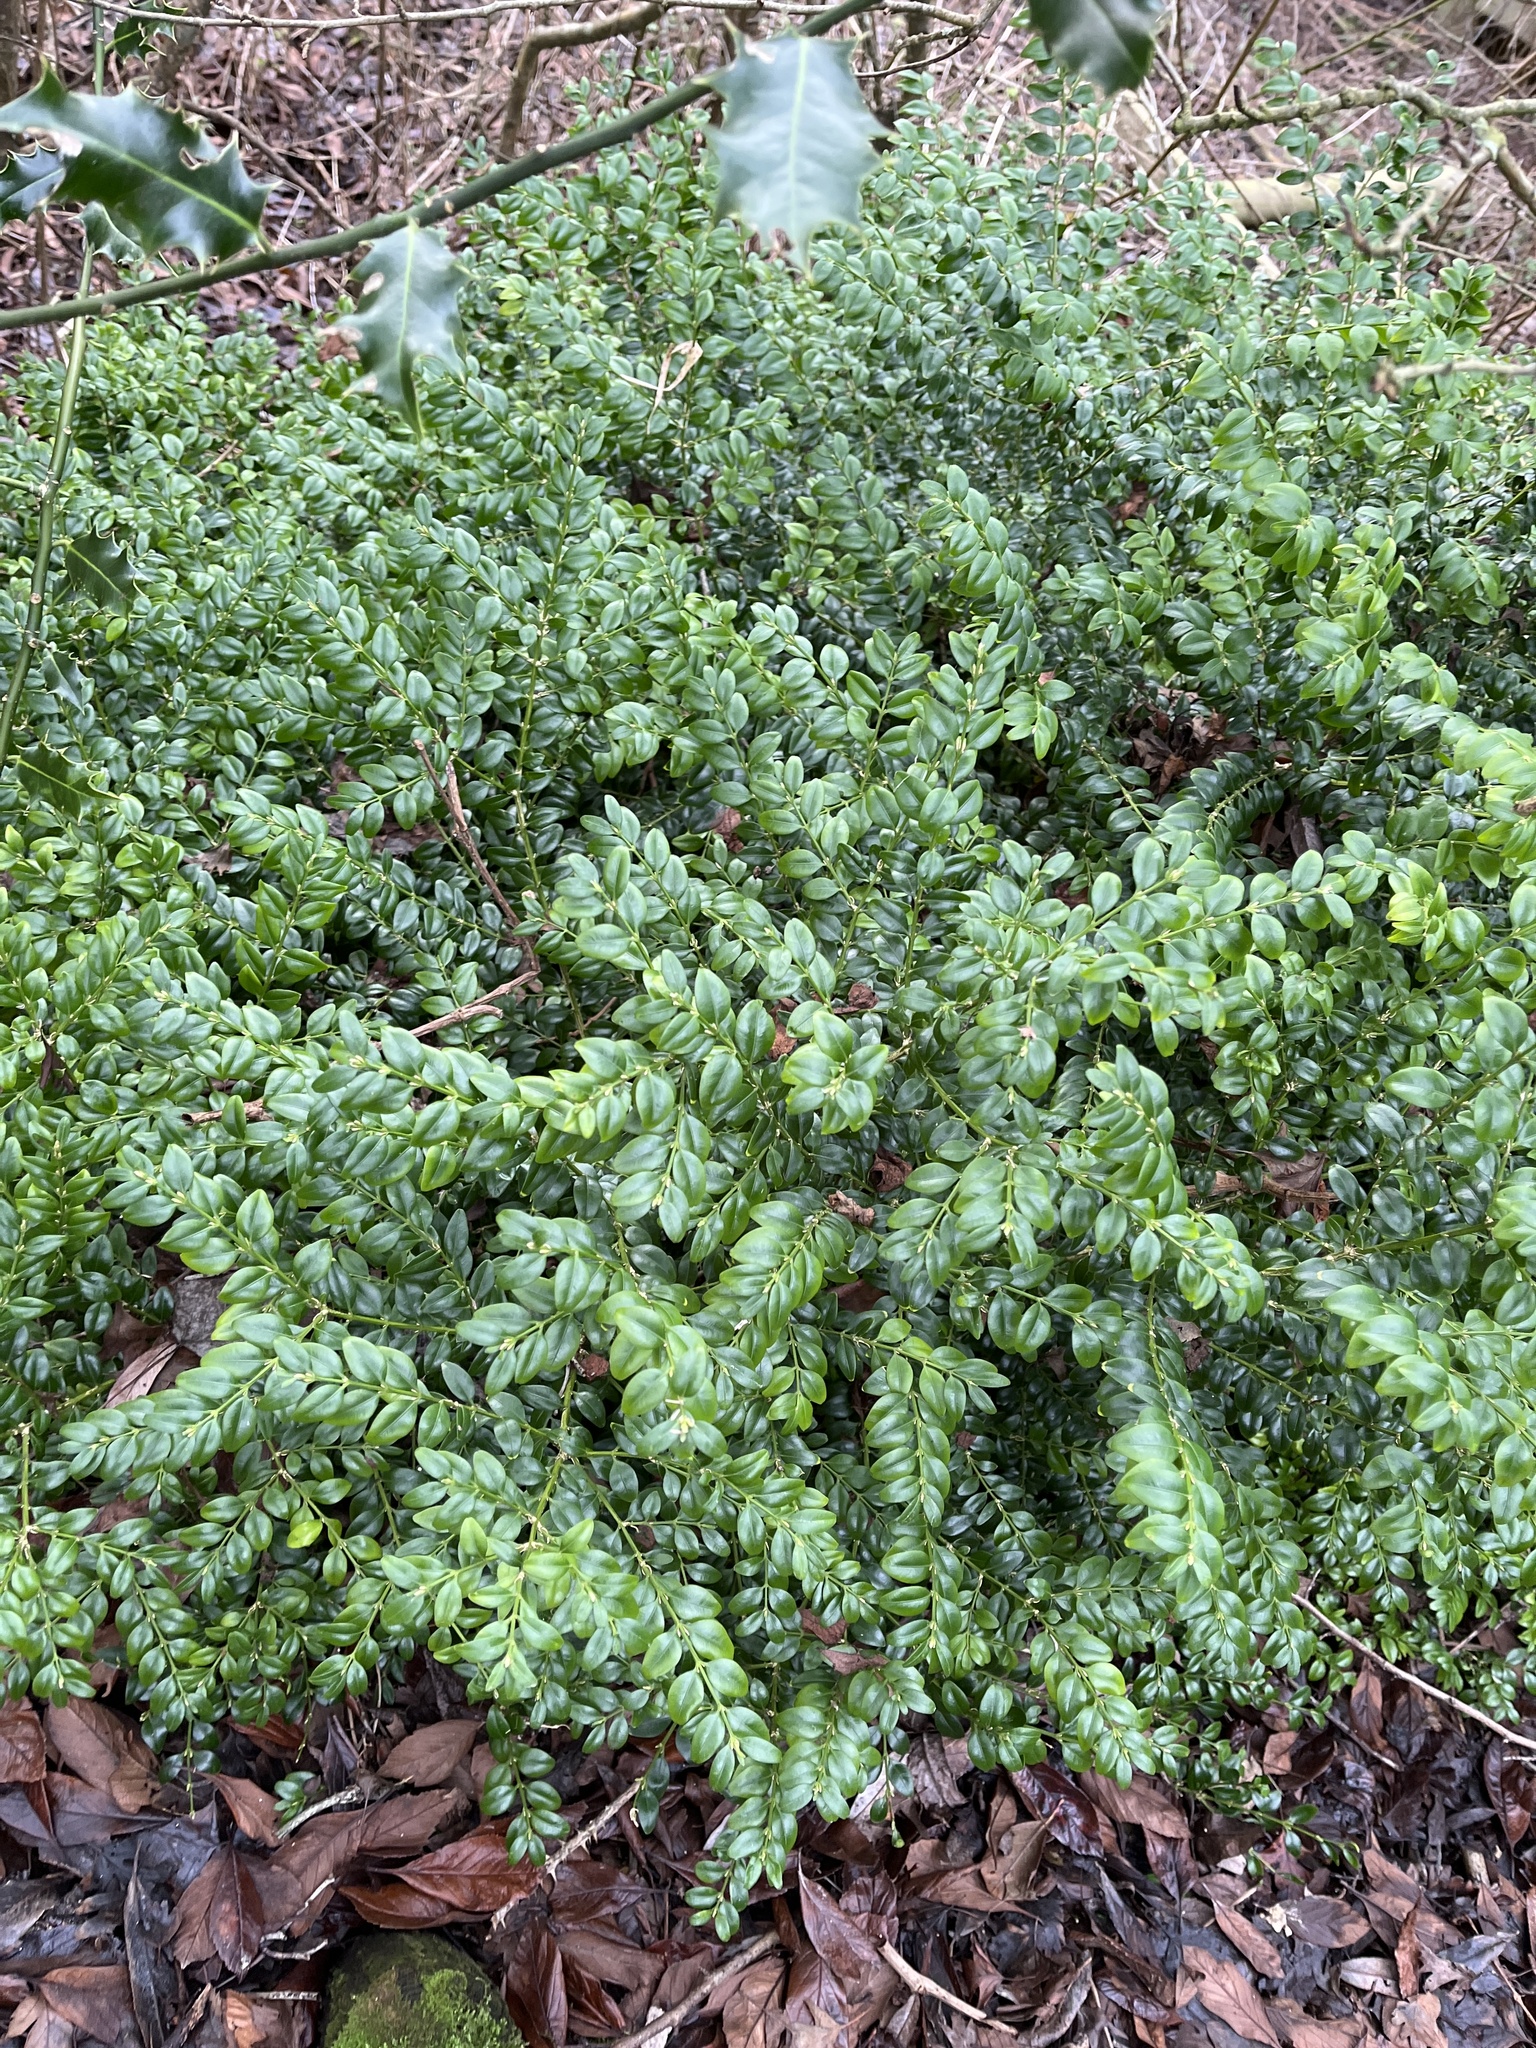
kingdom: Plantae
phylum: Tracheophyta
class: Magnoliopsida
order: Buxales
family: Buxaceae
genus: Buxus
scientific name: Buxus sempervirens
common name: Box
